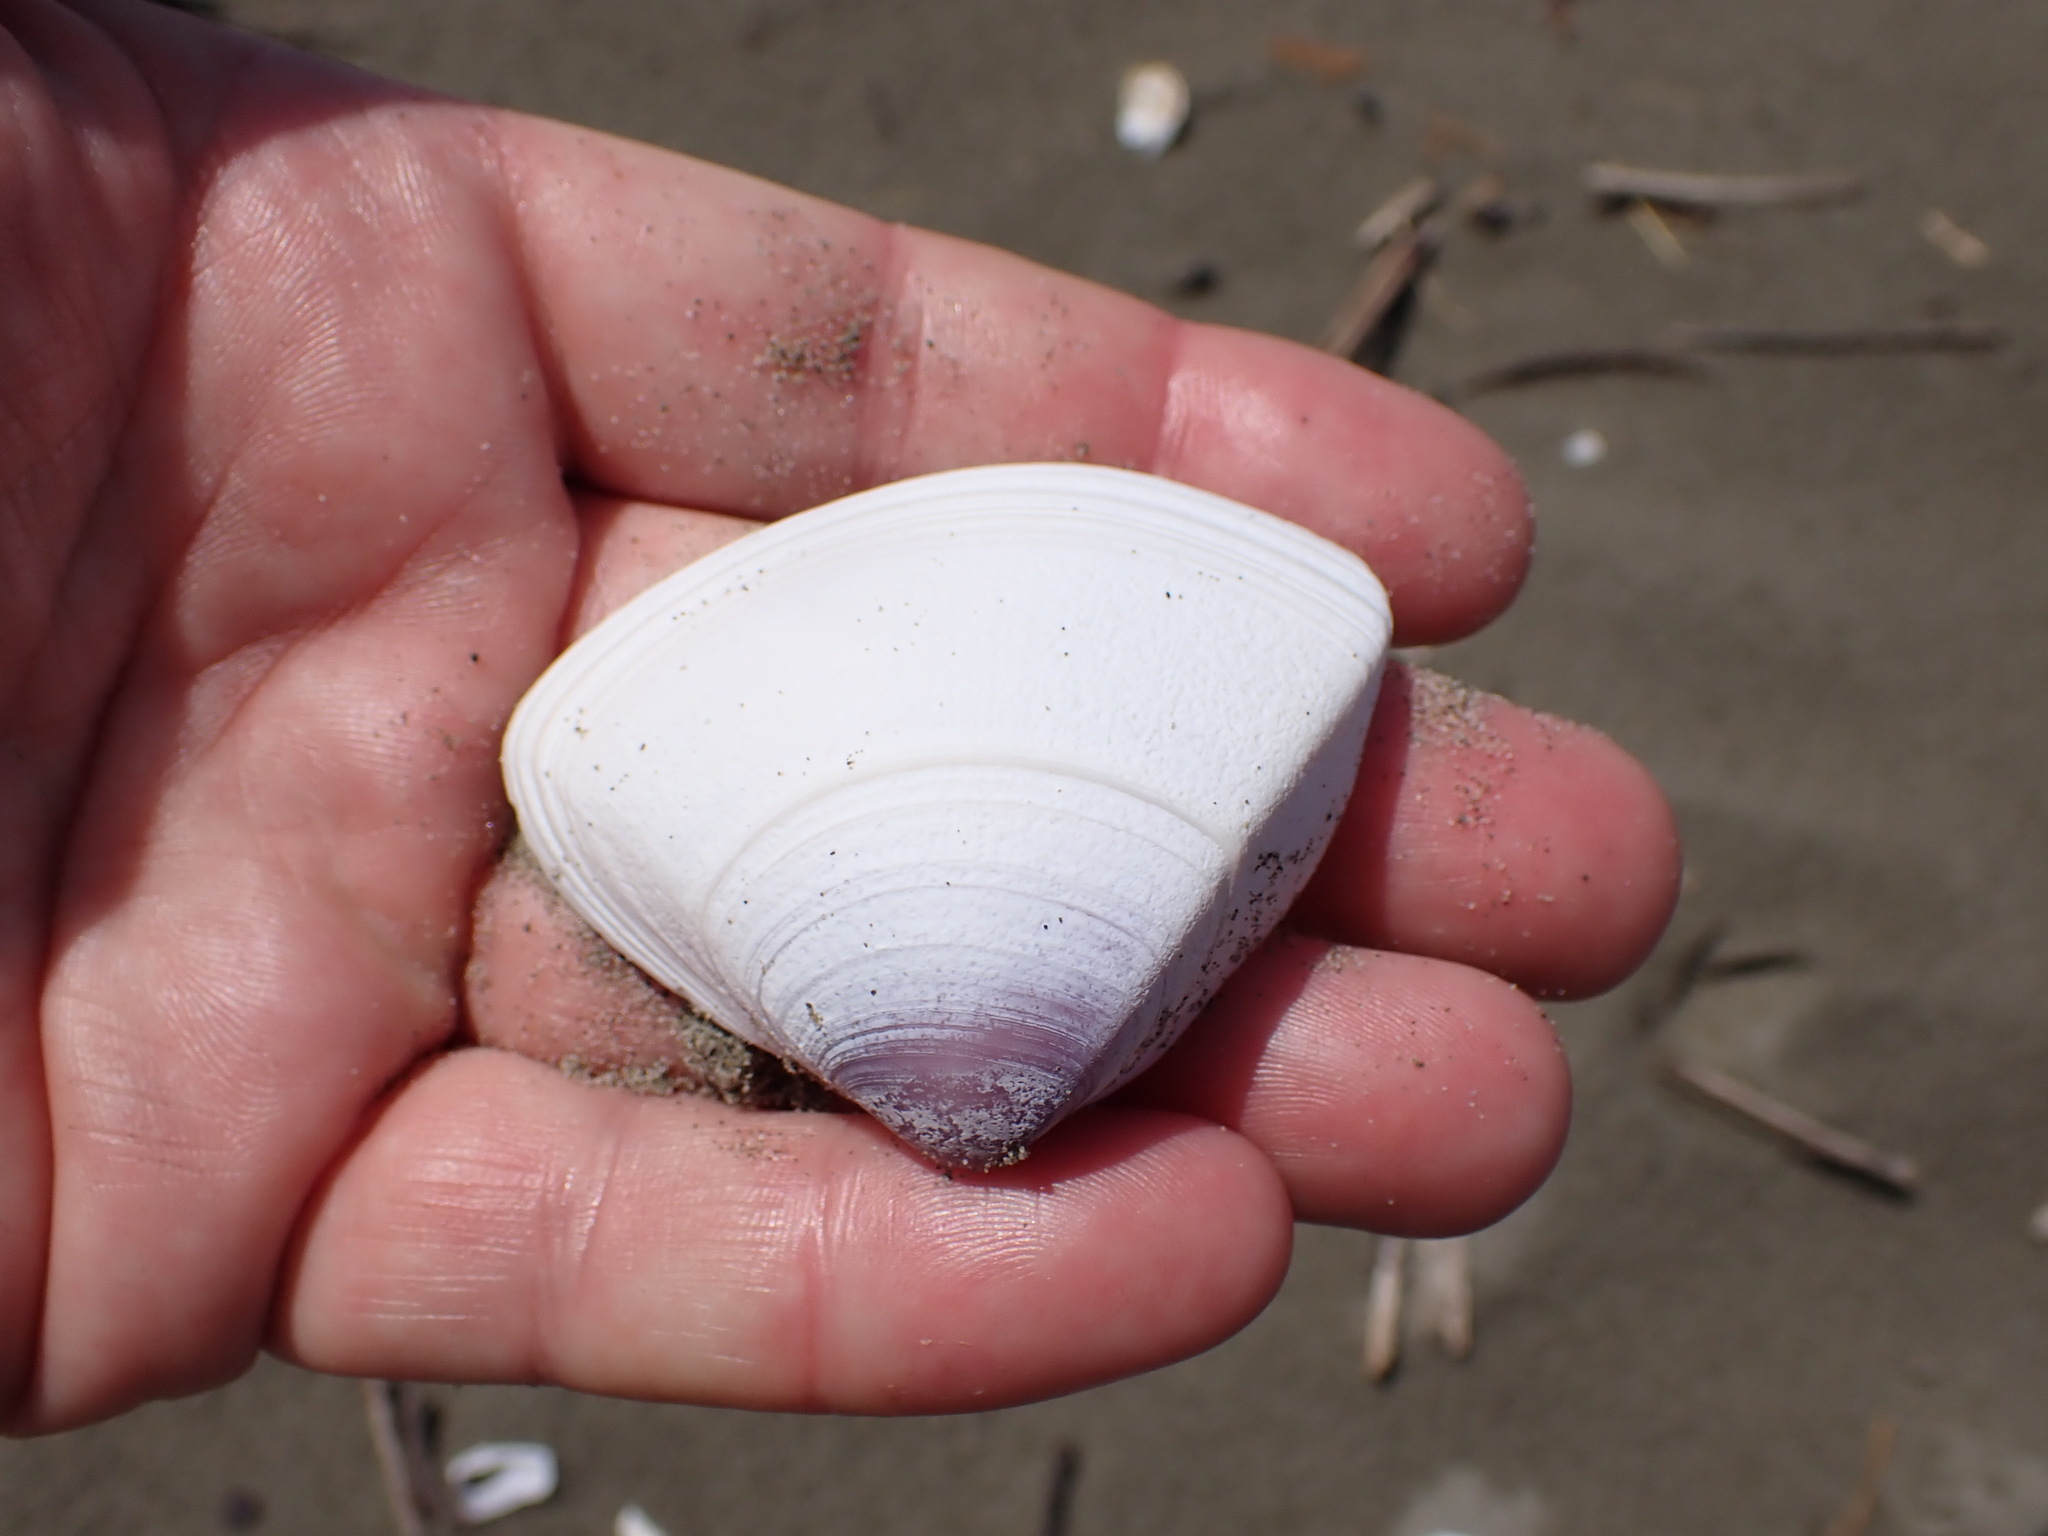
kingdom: Animalia
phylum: Mollusca
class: Bivalvia
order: Venerida
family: Mactridae
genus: Crassula
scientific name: Crassula aequilatera
